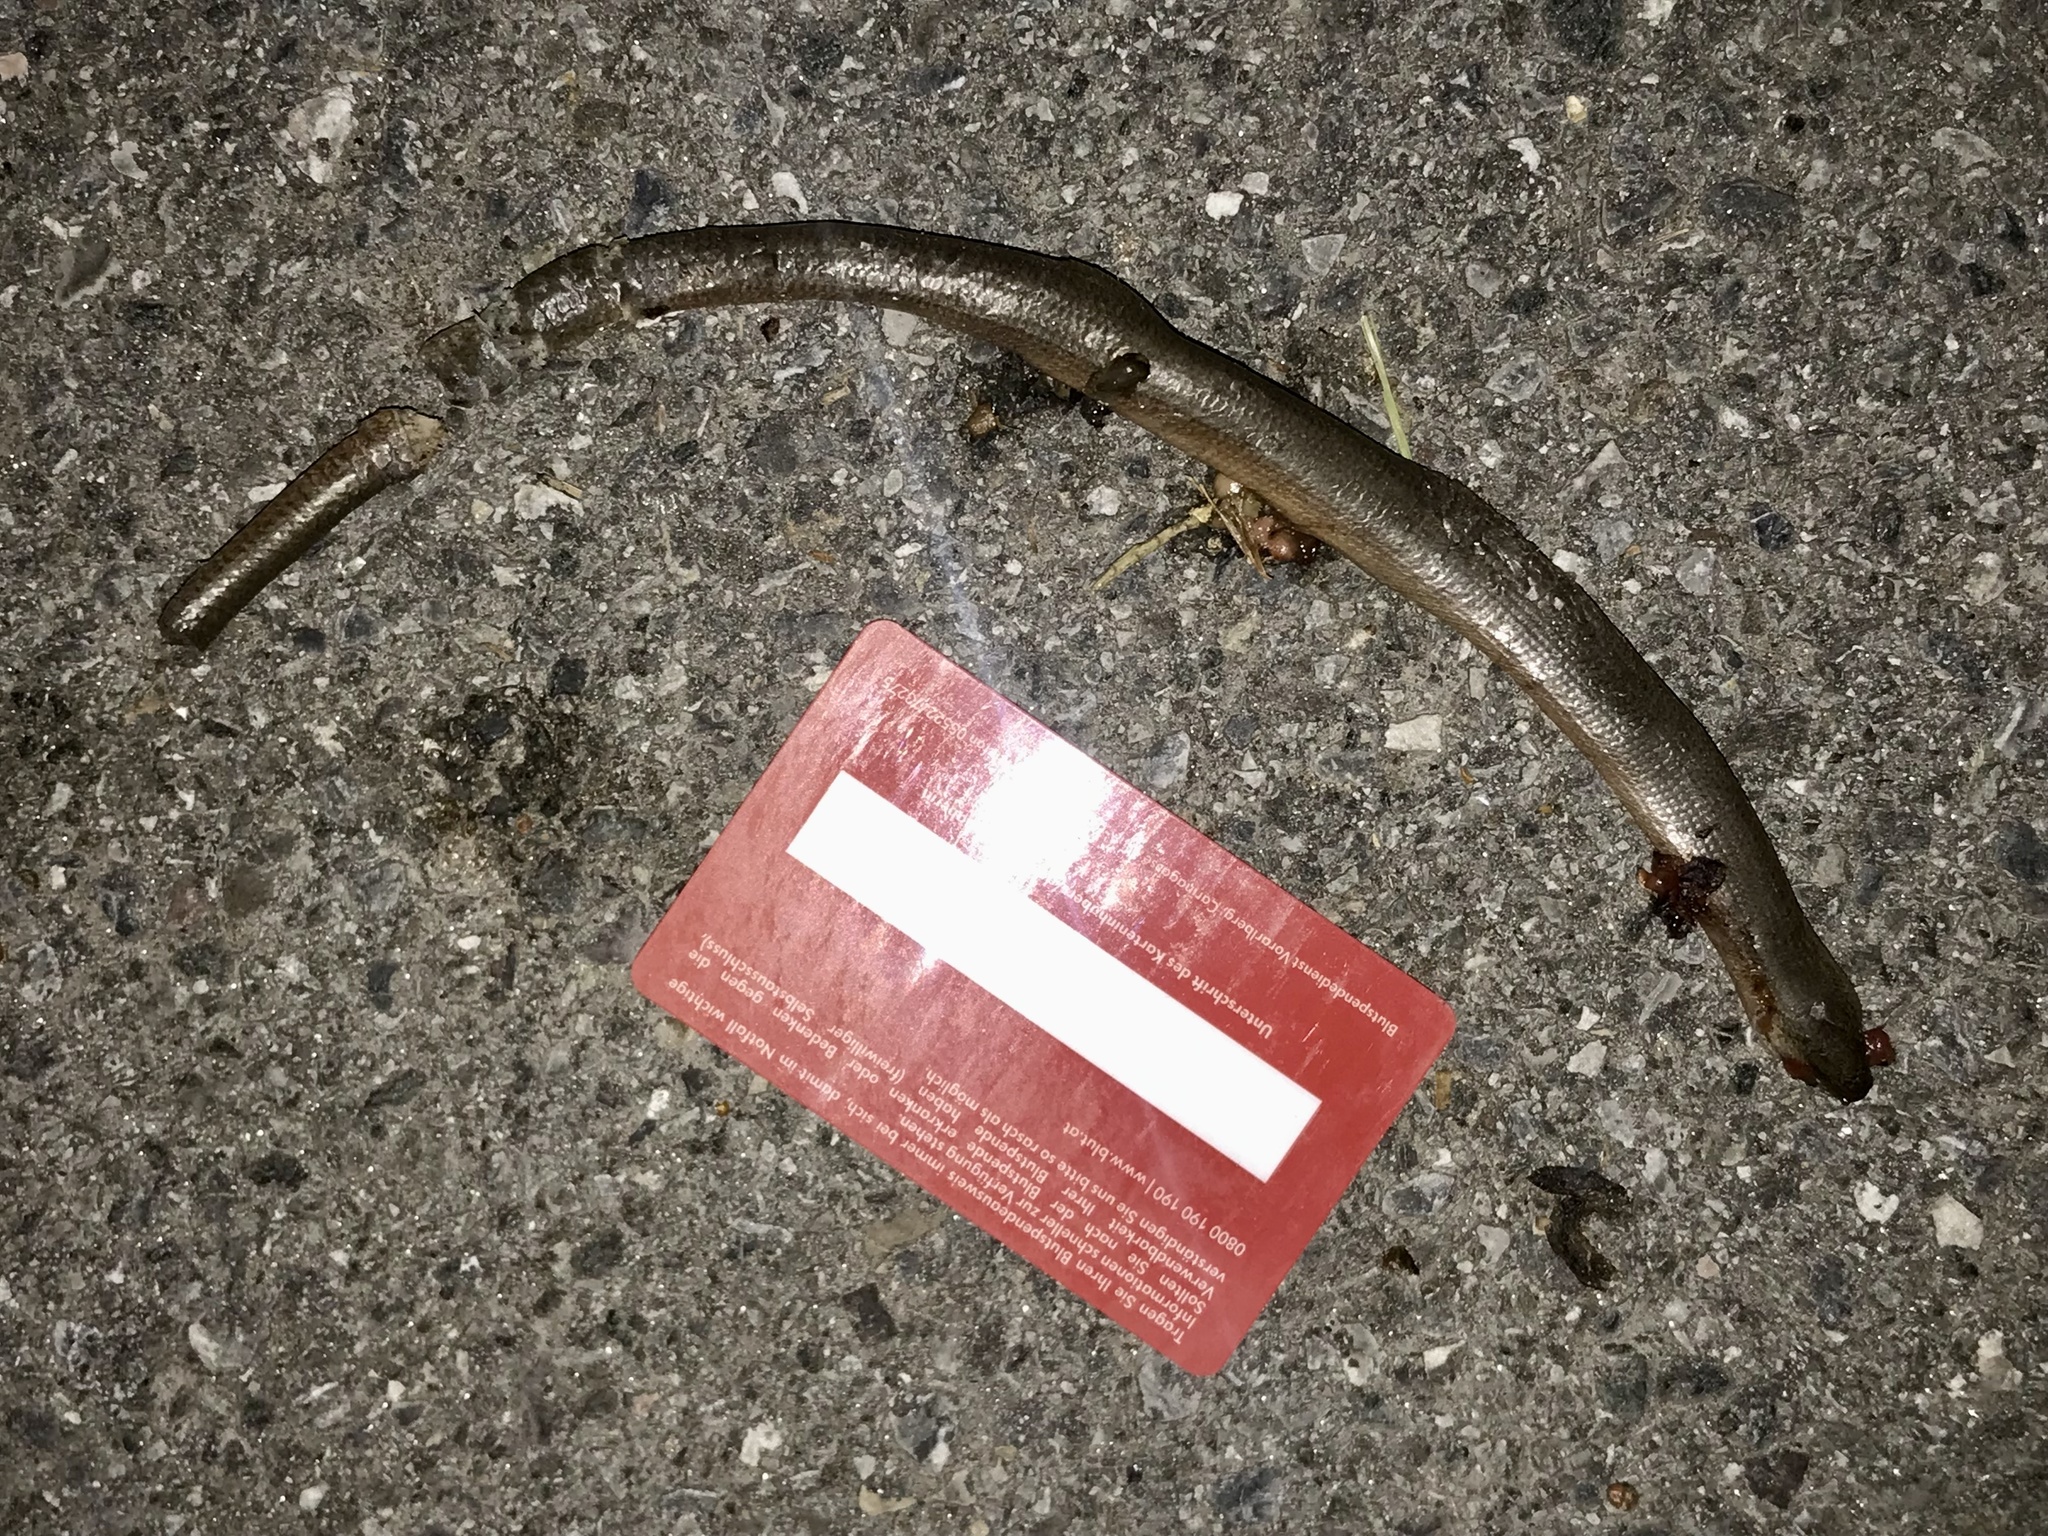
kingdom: Animalia
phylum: Chordata
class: Squamata
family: Anguidae
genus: Anguis
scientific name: Anguis fragilis
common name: Slow worm
